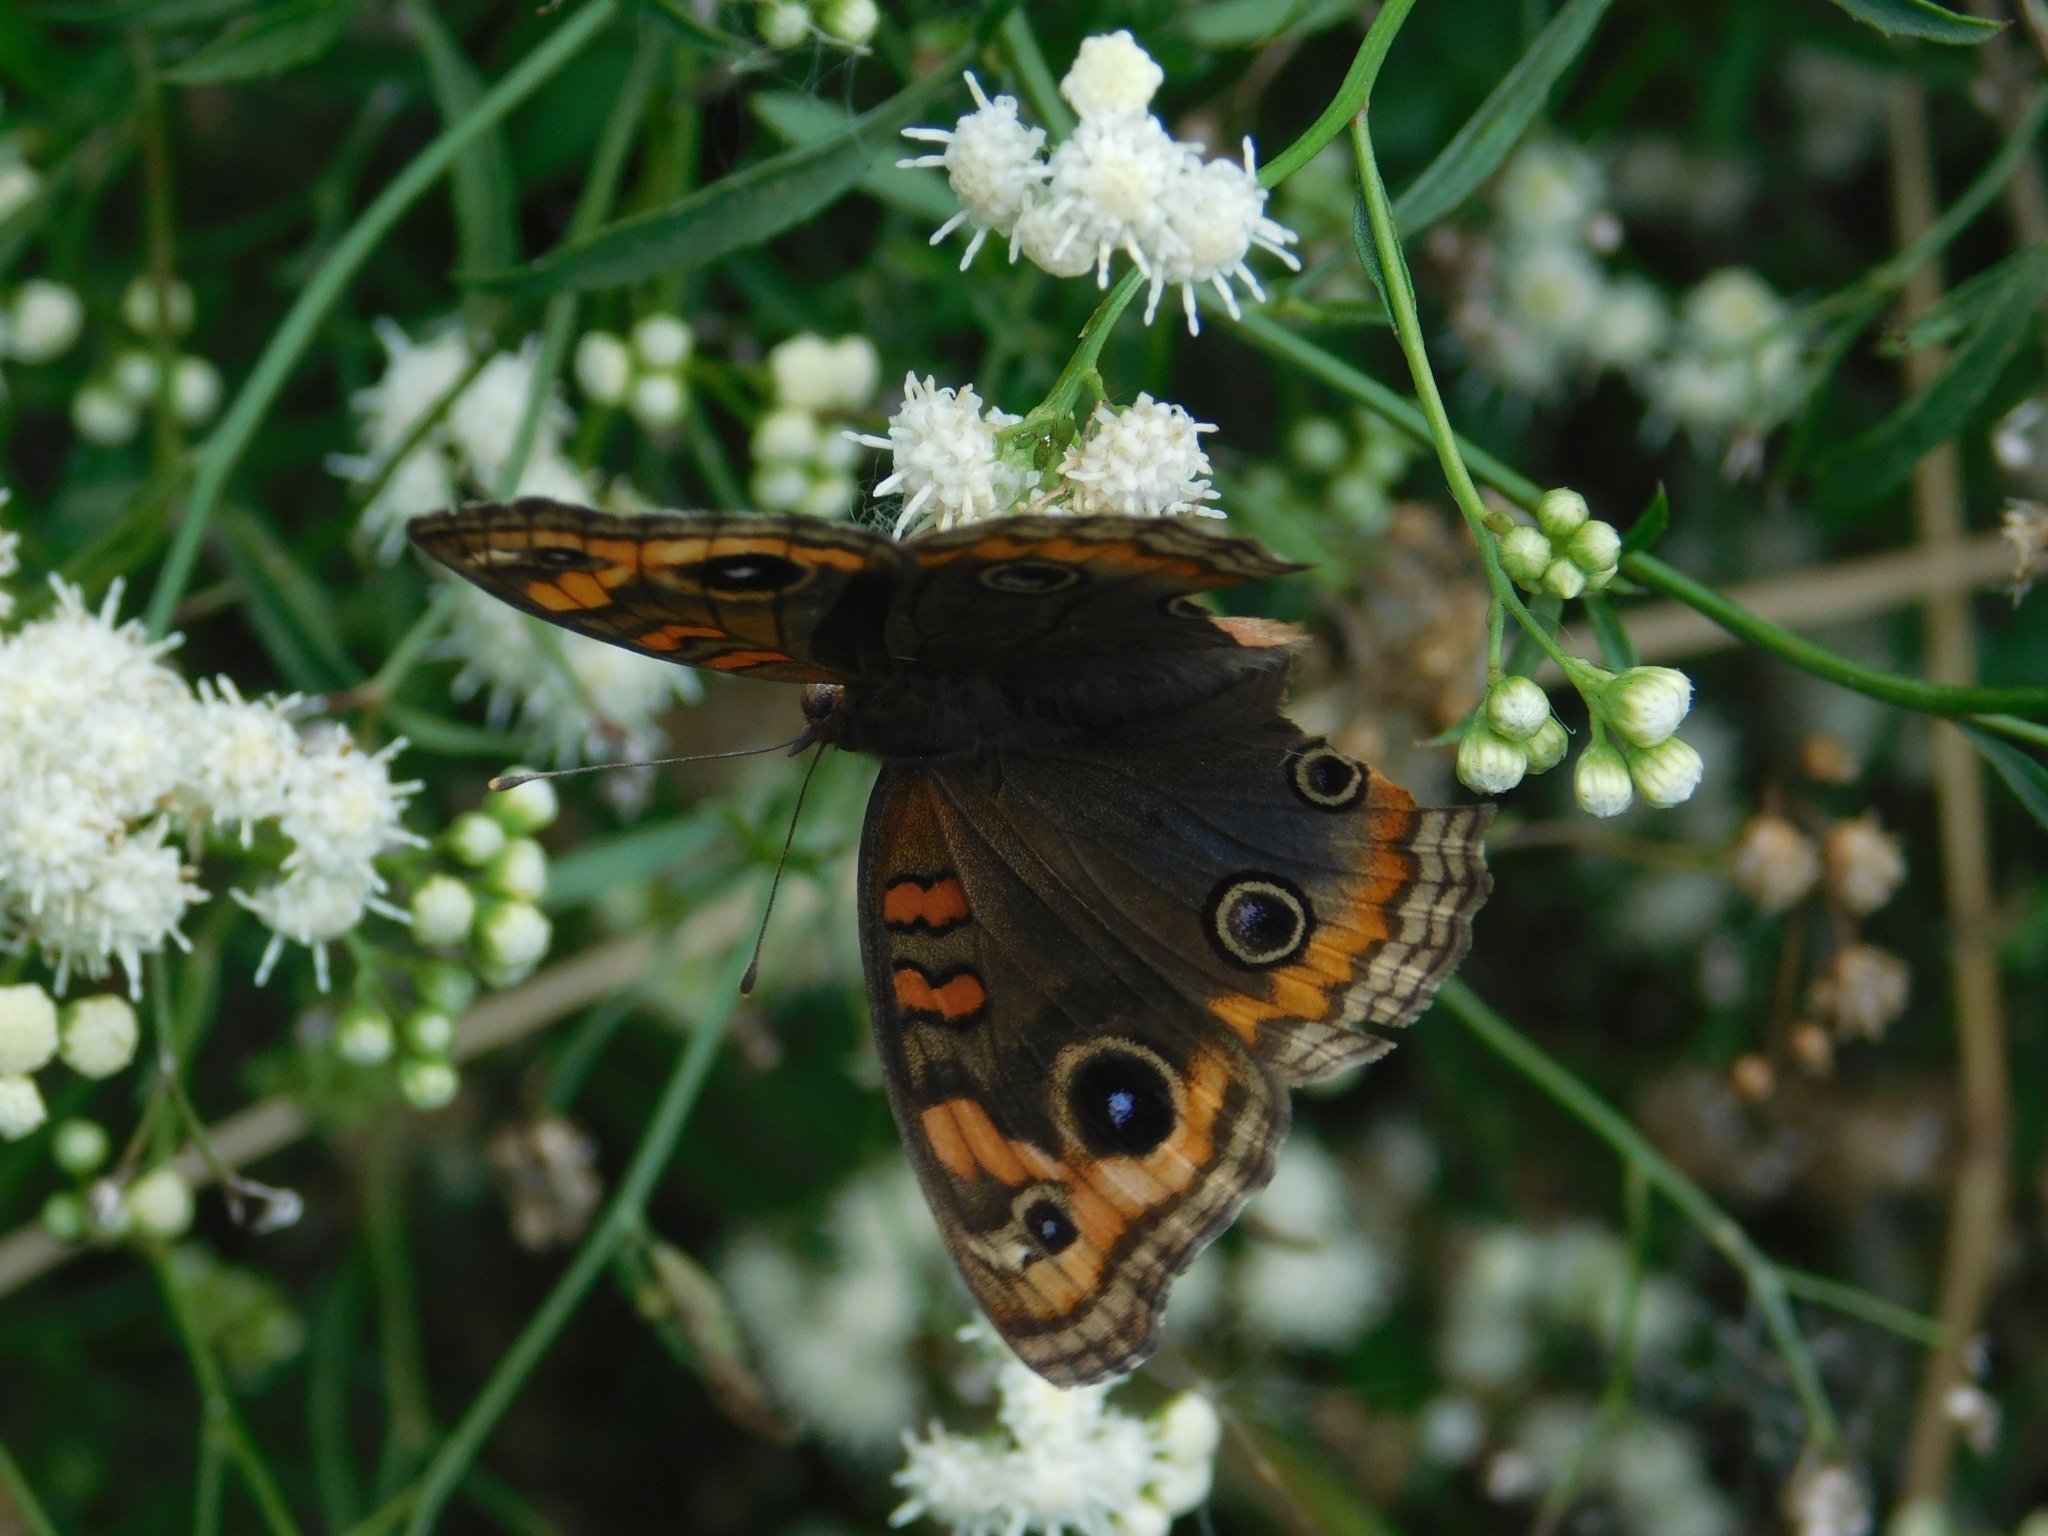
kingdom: Animalia
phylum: Arthropoda
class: Insecta
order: Lepidoptera
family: Nymphalidae
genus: Junonia
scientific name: Junonia lavinia
